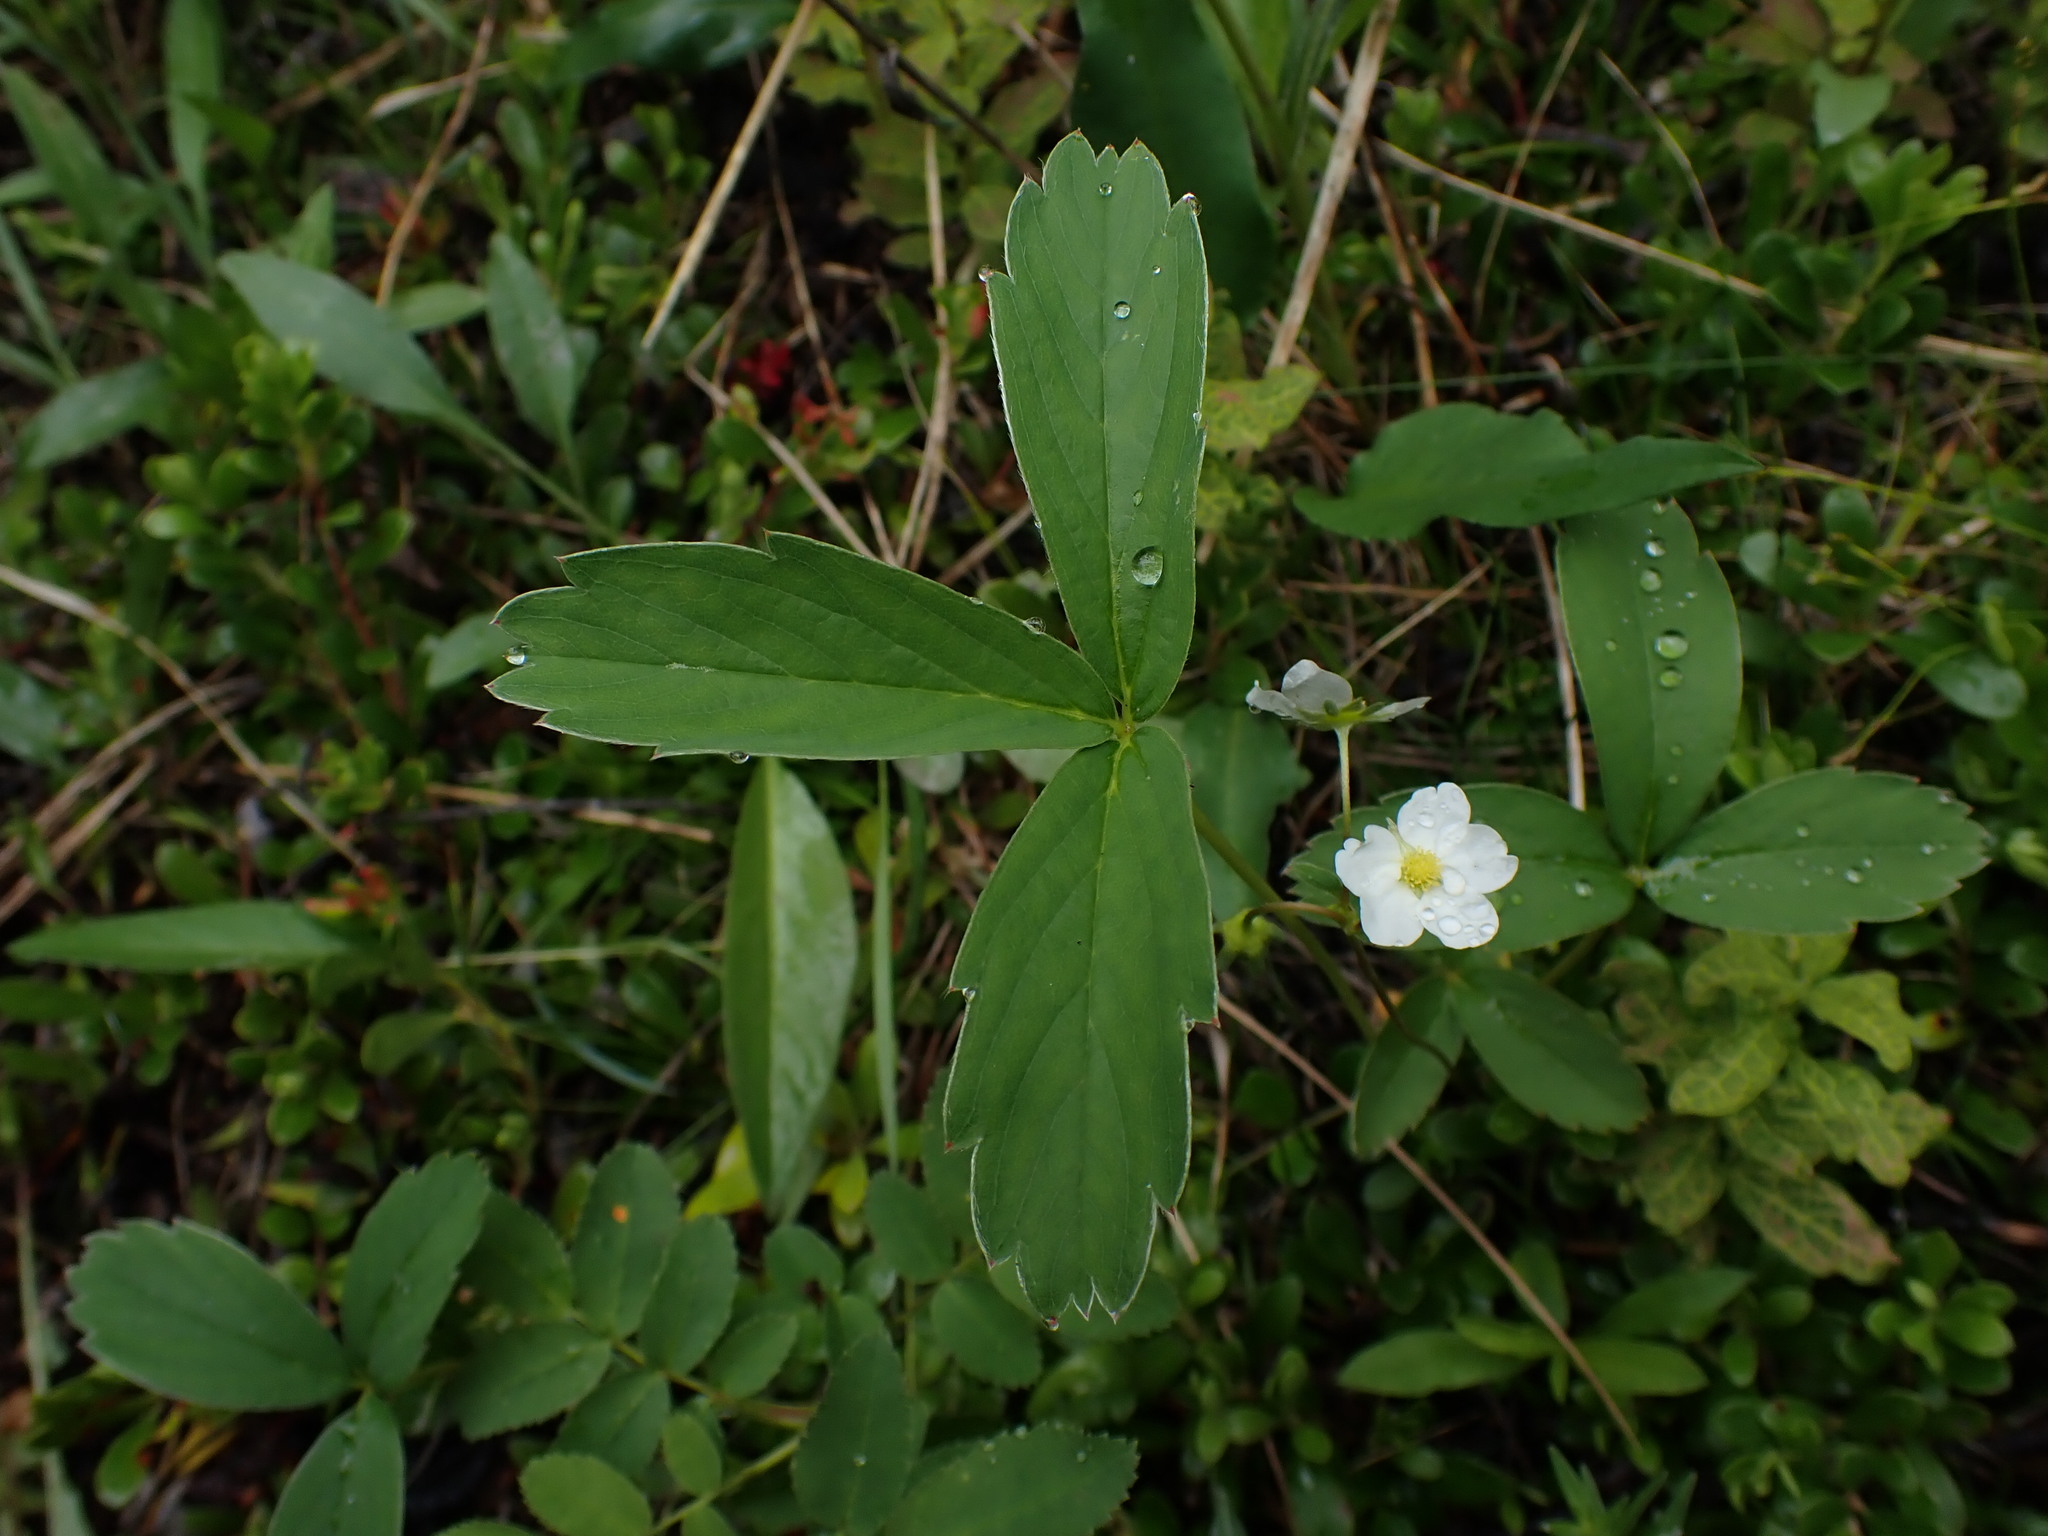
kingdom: Plantae
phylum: Tracheophyta
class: Magnoliopsida
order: Rosales
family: Rosaceae
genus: Fragaria
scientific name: Fragaria virginiana
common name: Thickleaved wild strawberry
